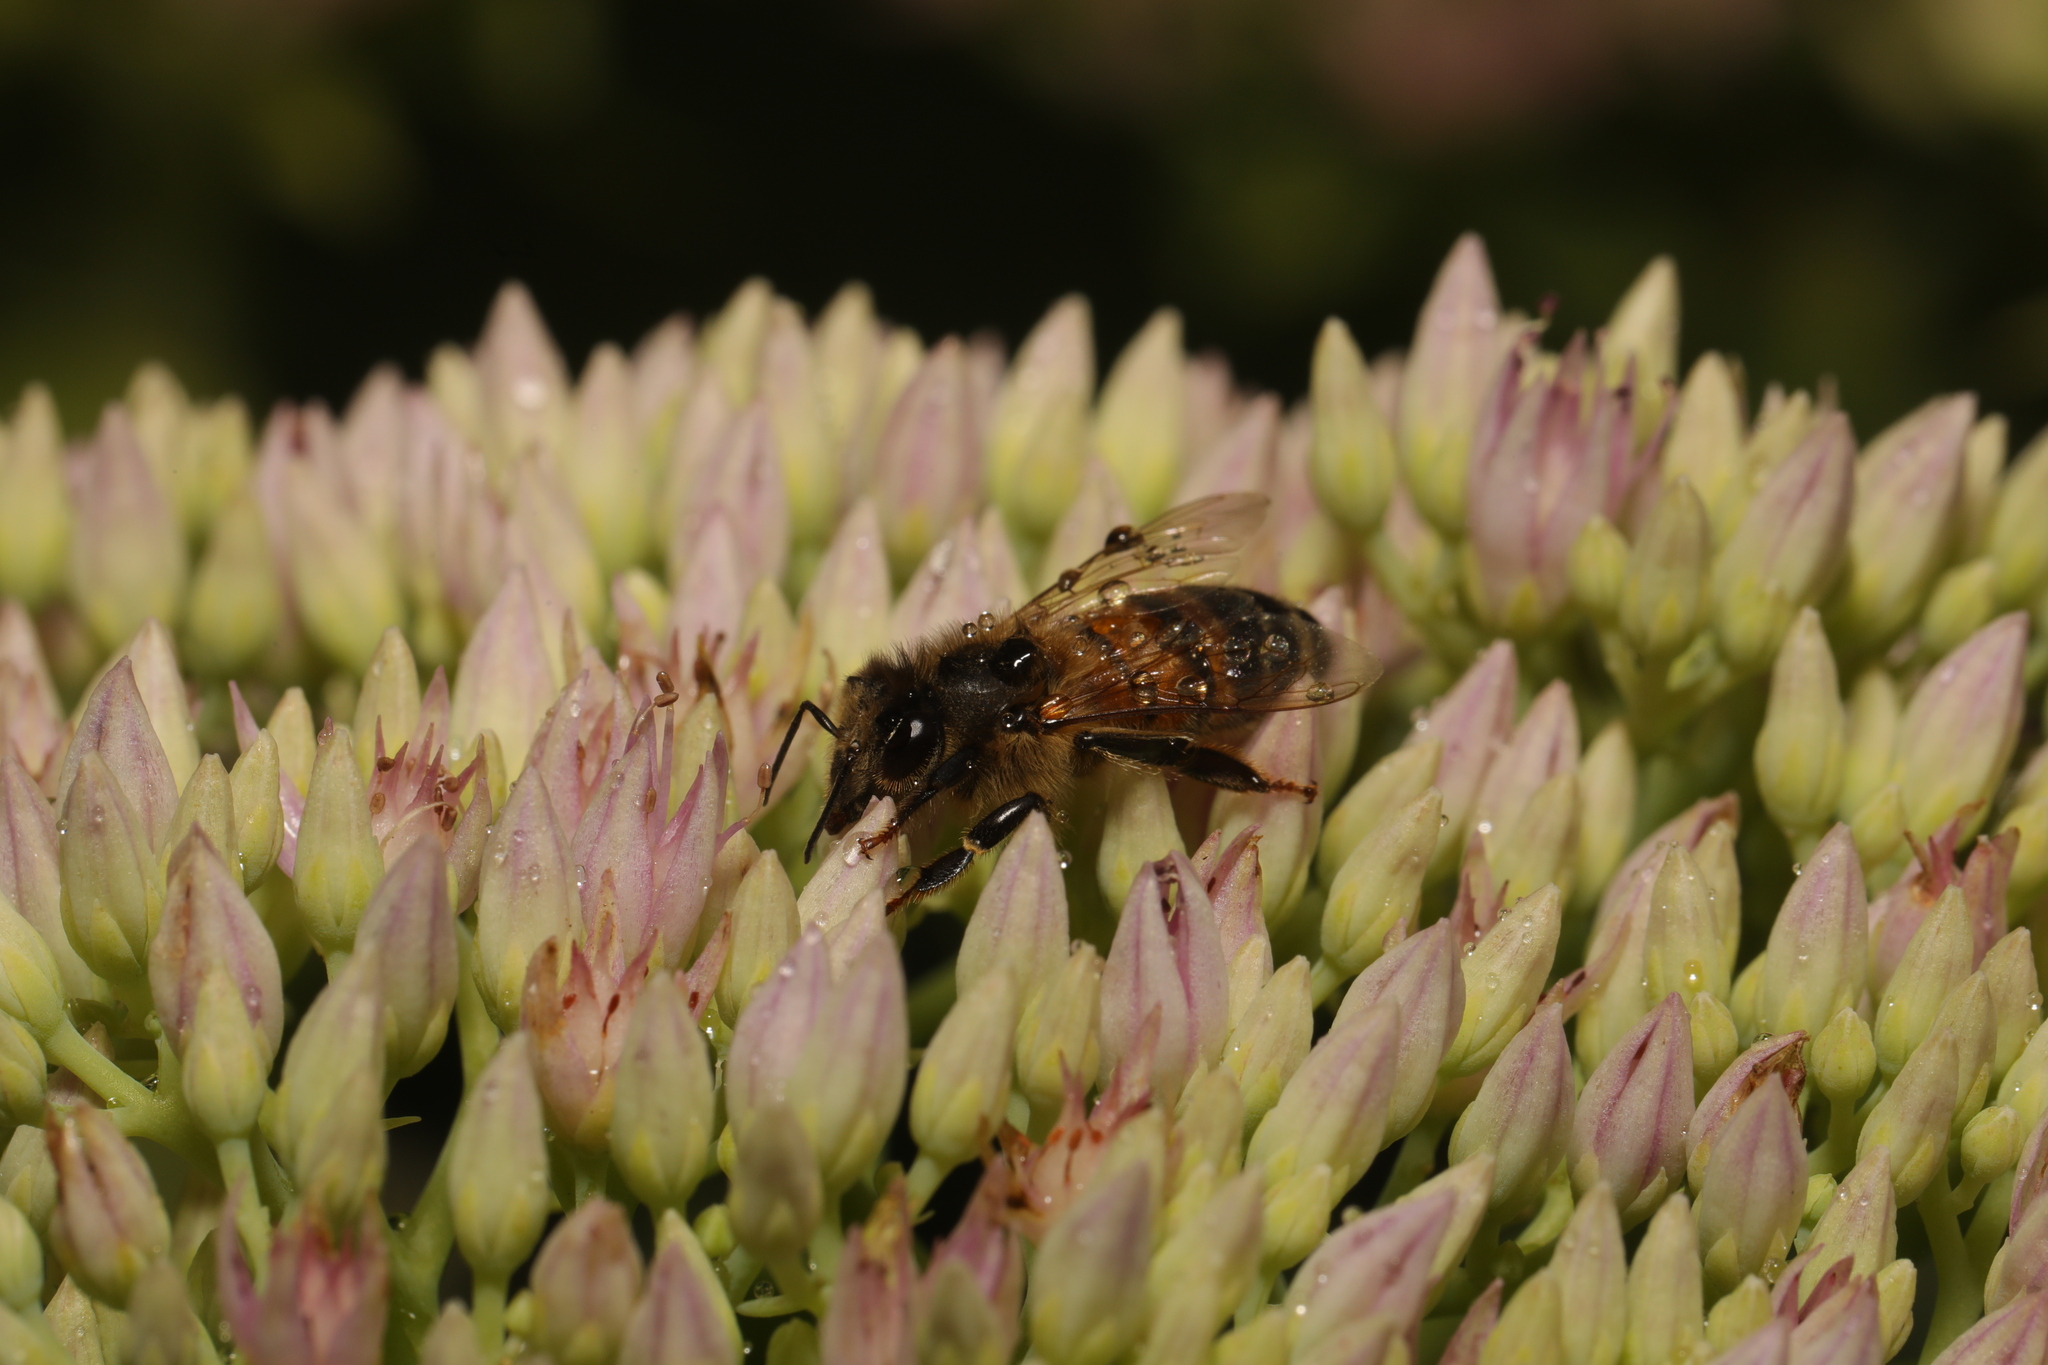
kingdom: Animalia
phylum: Arthropoda
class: Insecta
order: Hymenoptera
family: Apidae
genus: Apis
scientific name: Apis mellifera
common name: Honey bee
